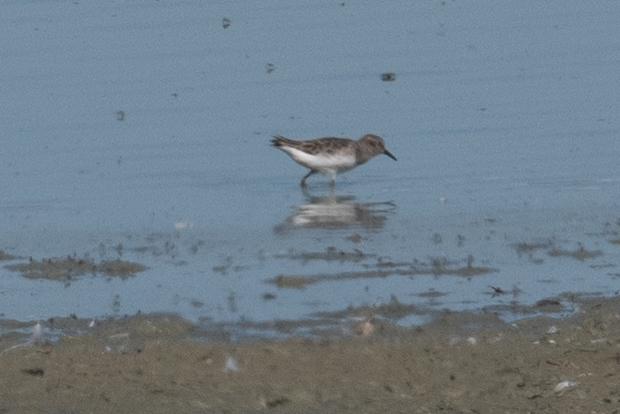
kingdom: Animalia
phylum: Chordata
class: Aves
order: Charadriiformes
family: Scolopacidae
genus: Calidris
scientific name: Calidris minutilla
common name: Least sandpiper
